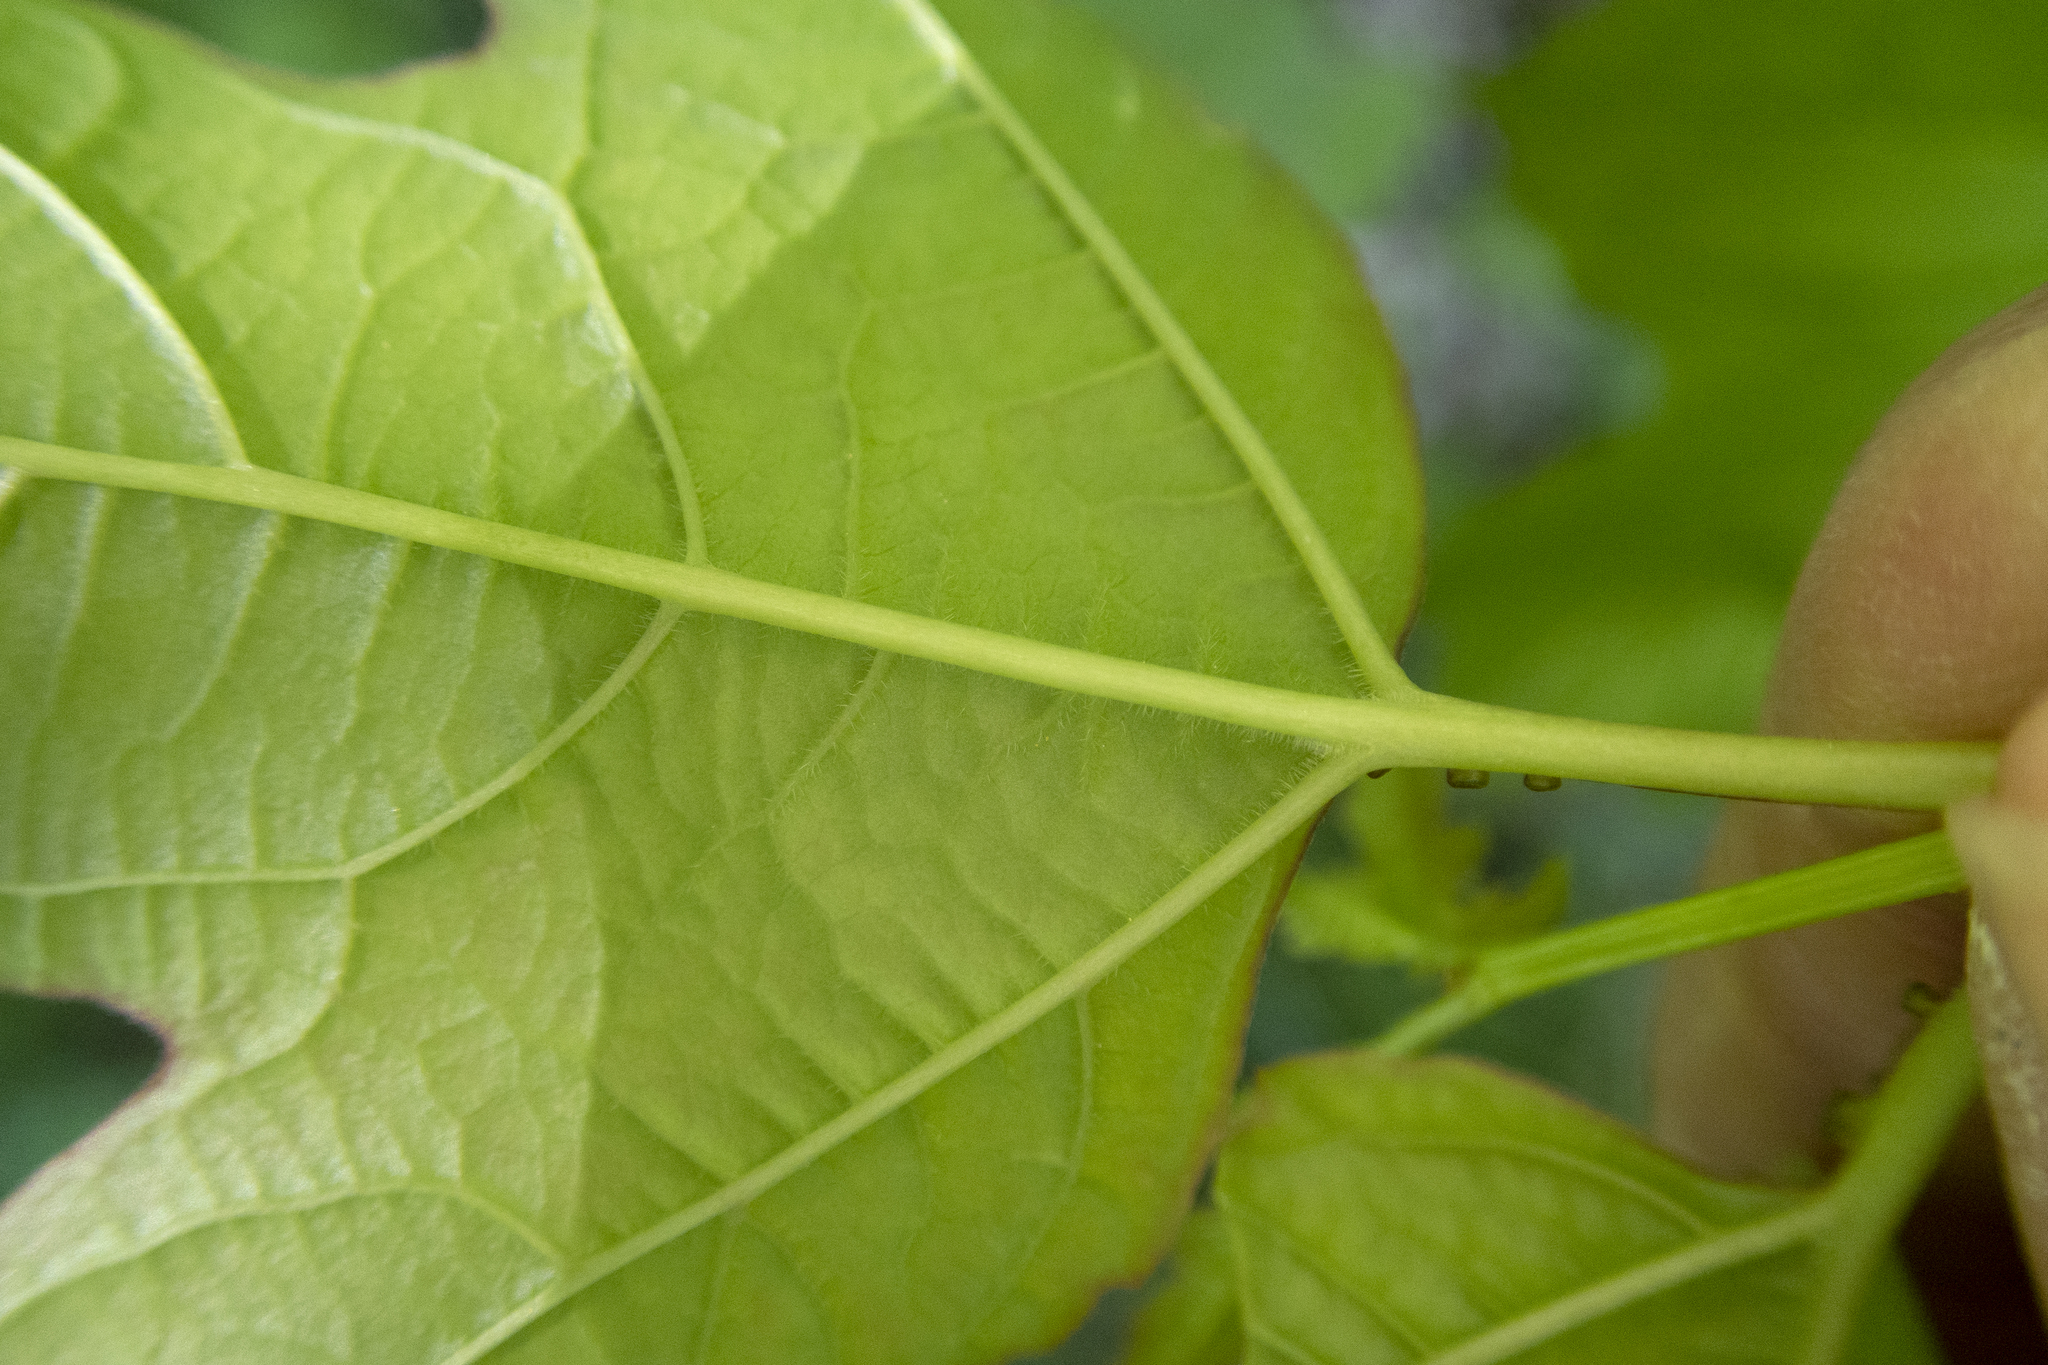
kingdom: Plantae
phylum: Tracheophyta
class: Magnoliopsida
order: Dipsacales
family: Viburnaceae
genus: Viburnum
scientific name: Viburnum opulus
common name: Guelder-rose
